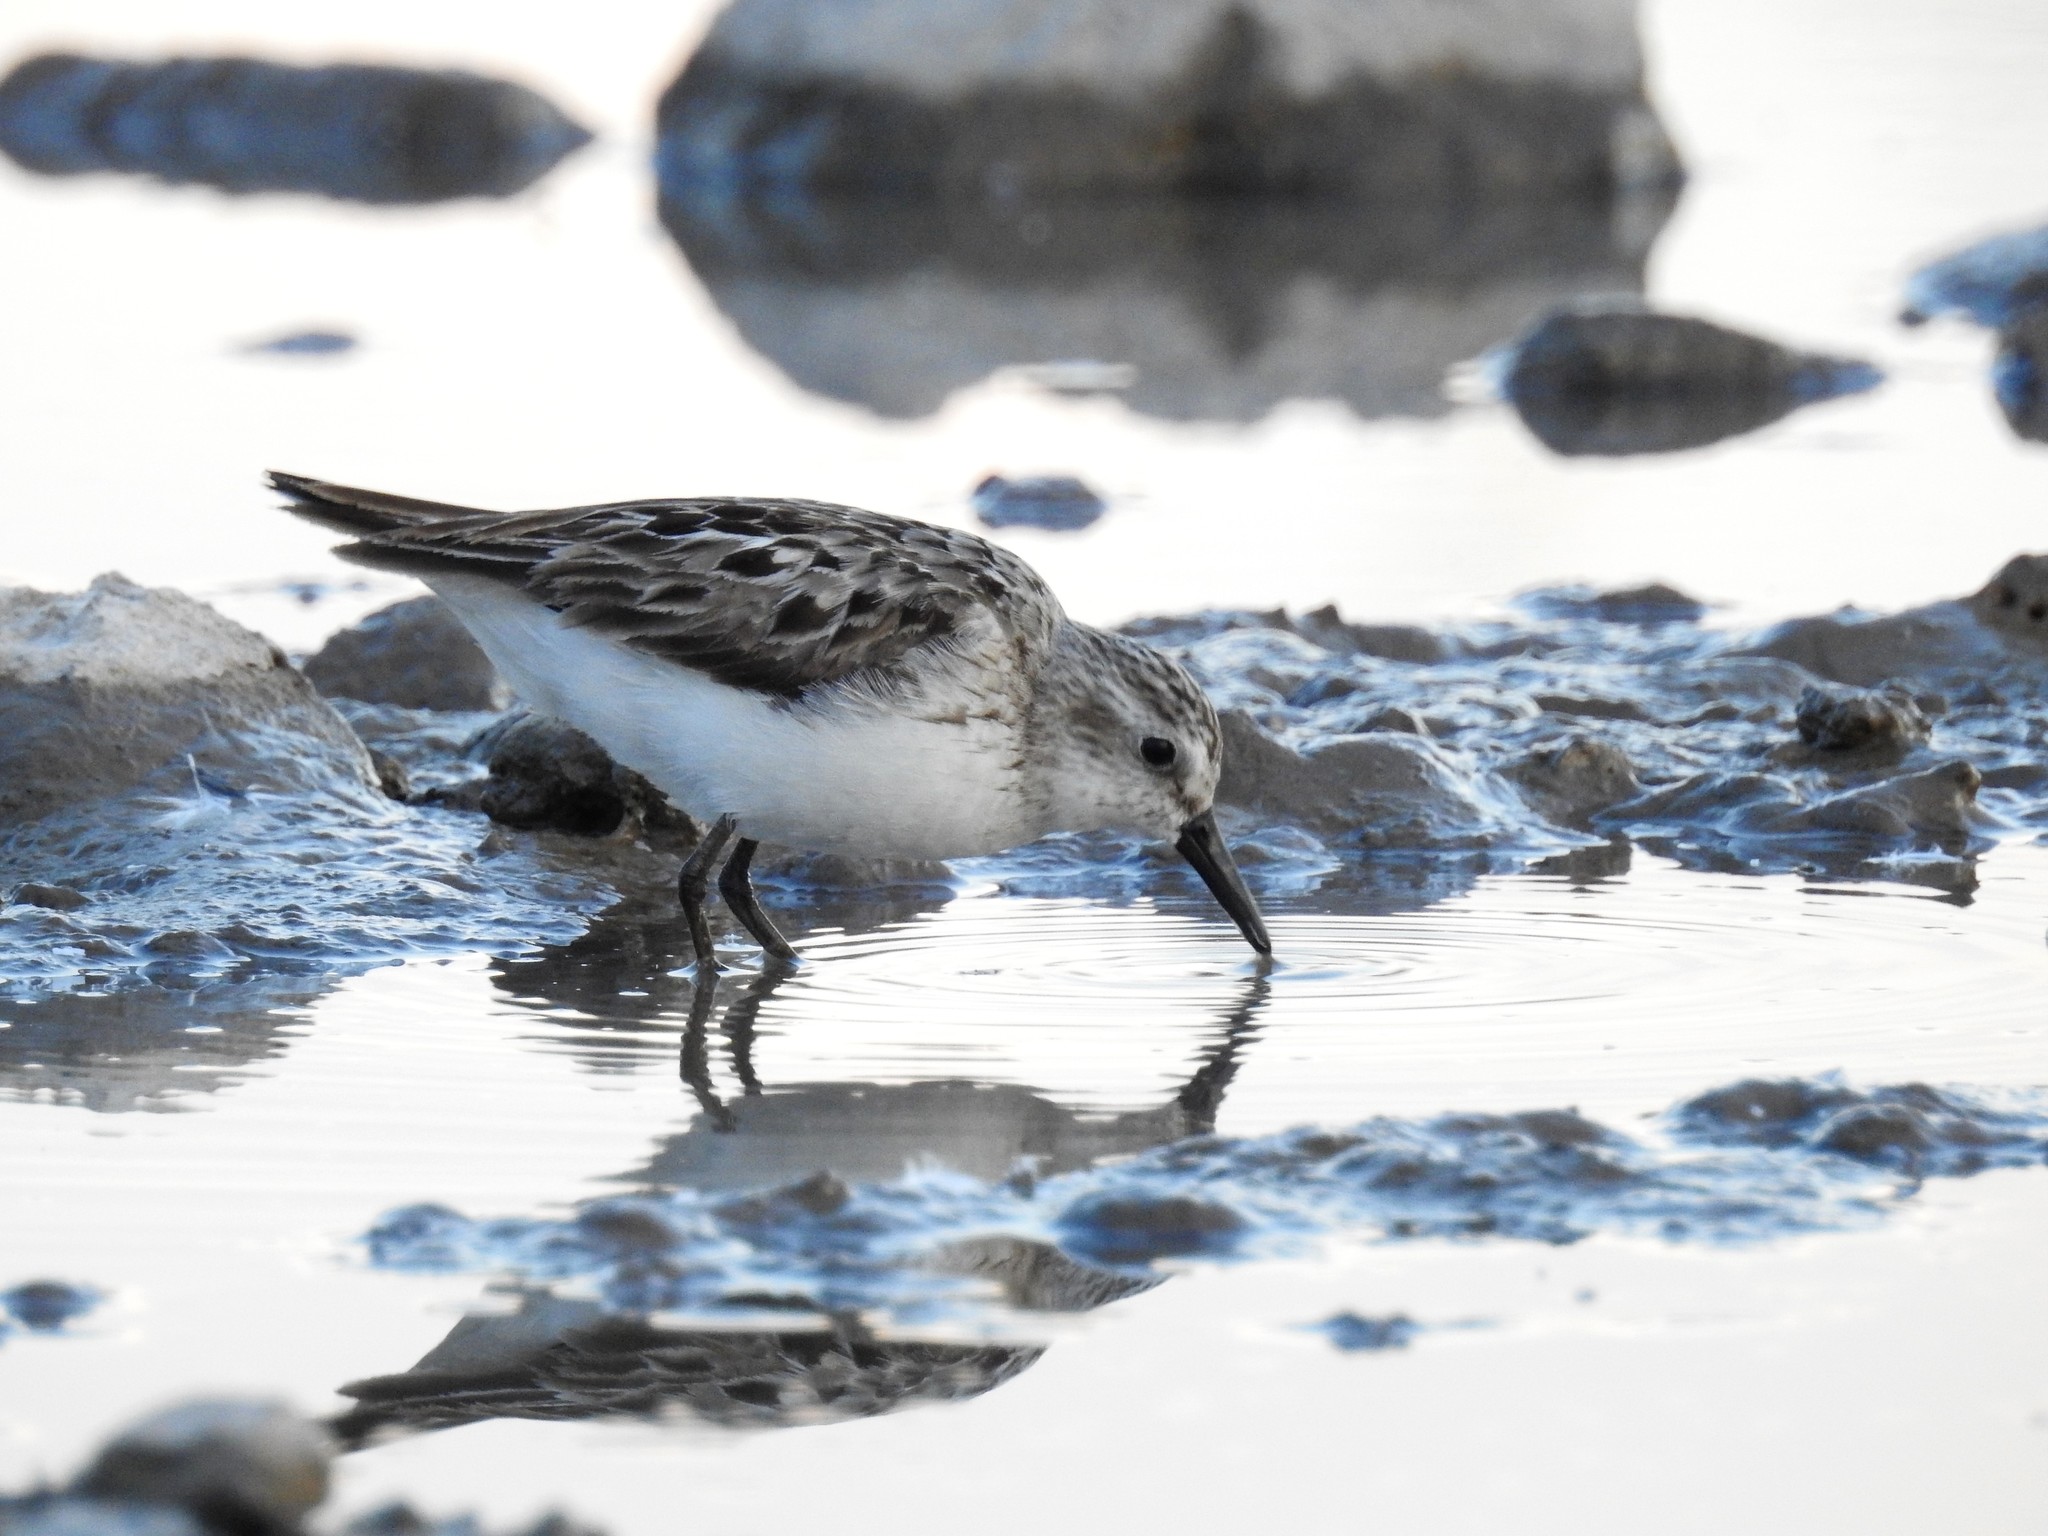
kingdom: Animalia
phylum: Chordata
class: Aves
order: Charadriiformes
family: Scolopacidae
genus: Calidris
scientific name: Calidris pusilla
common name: Semipalmated sandpiper
